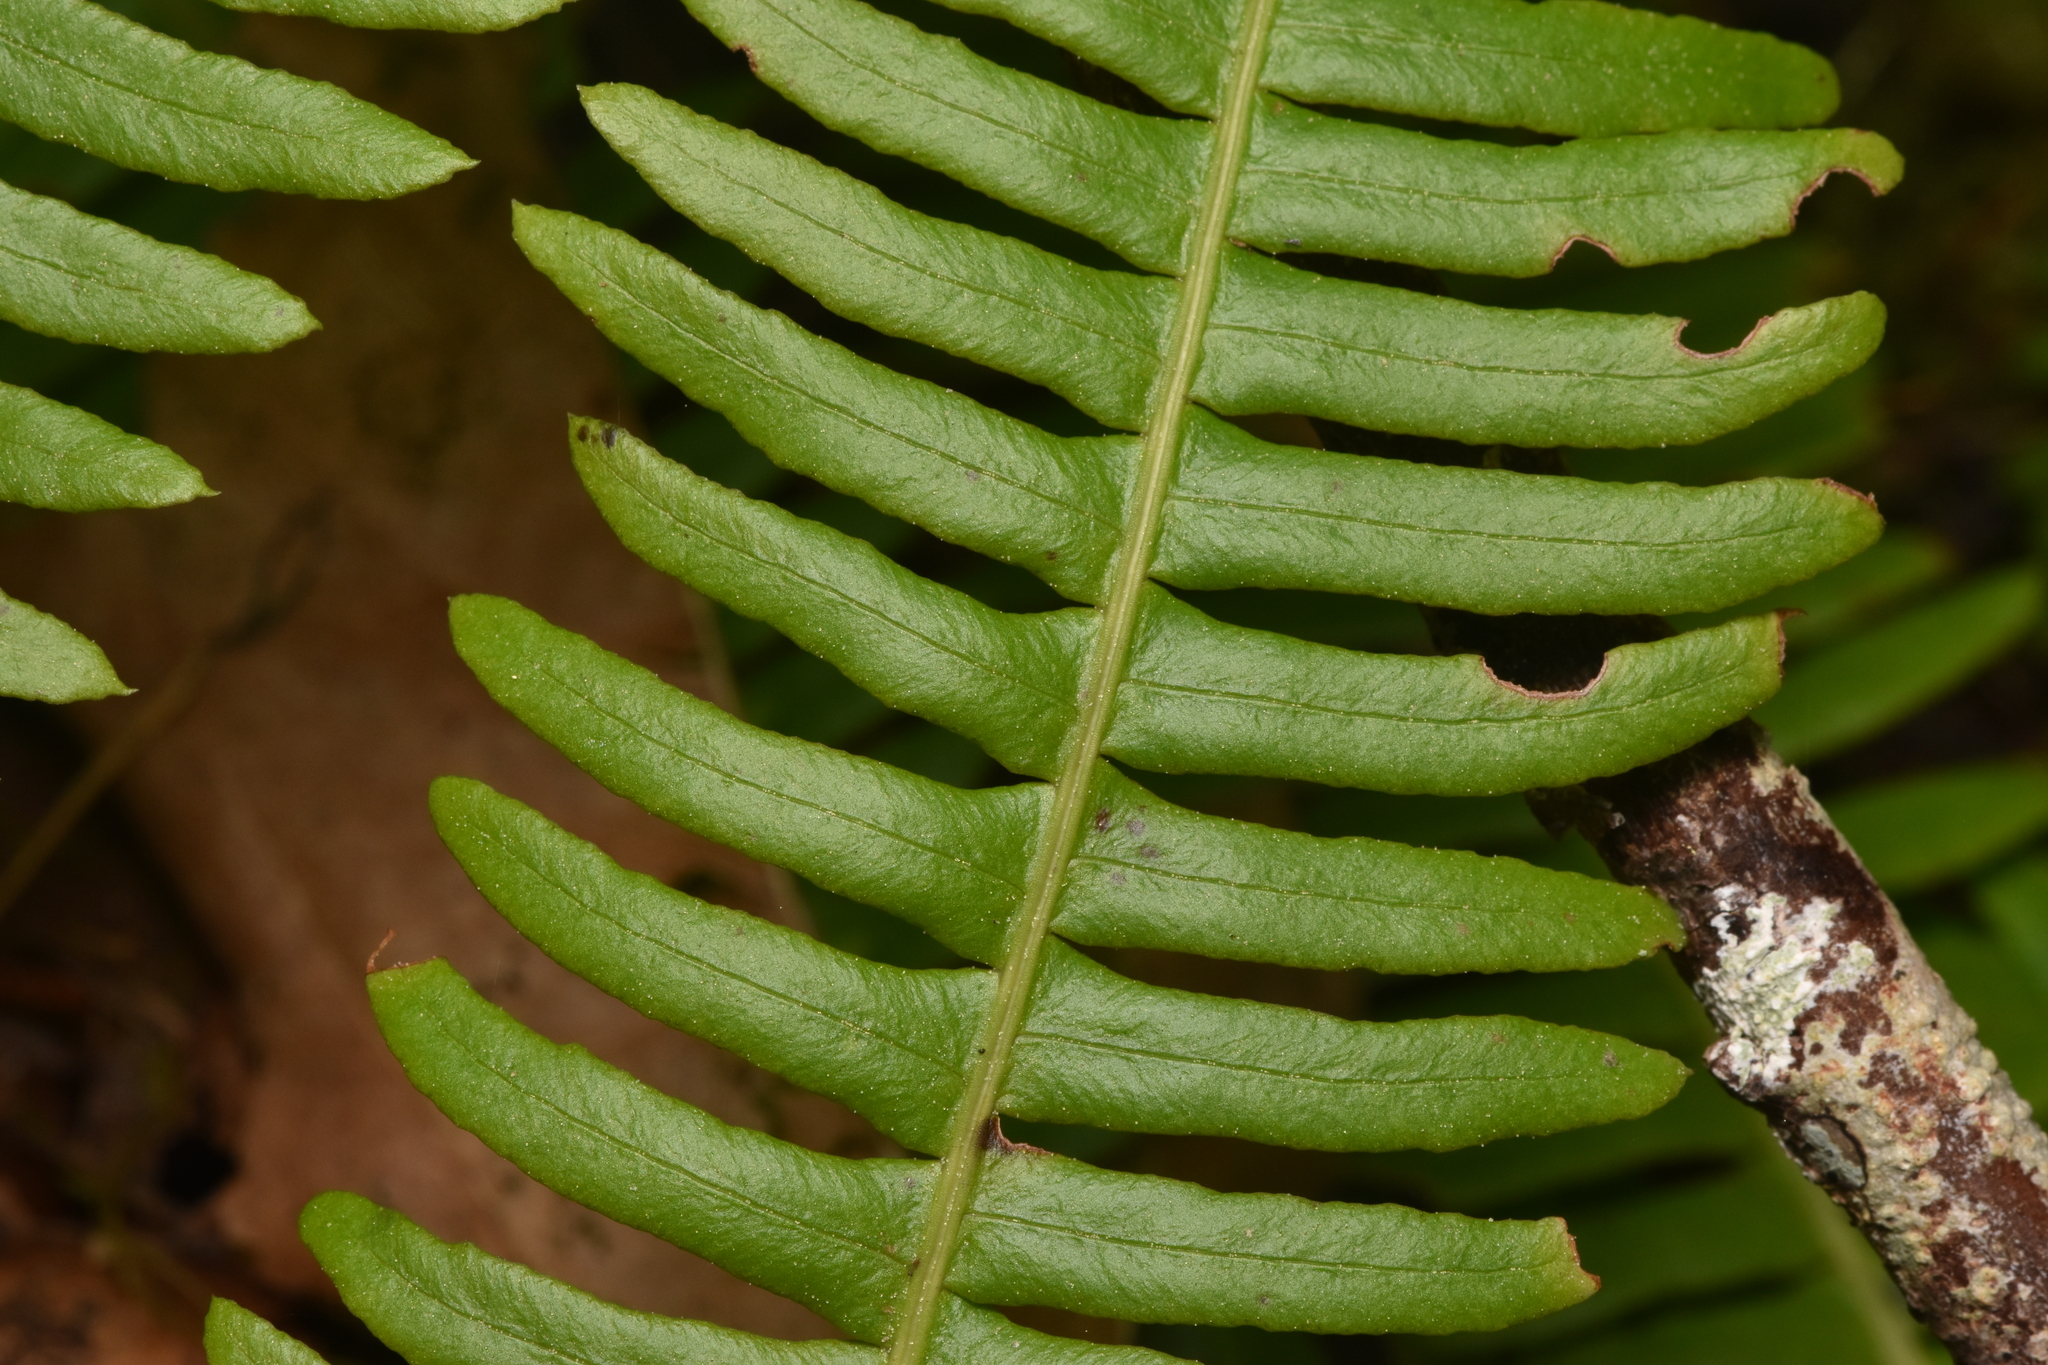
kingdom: Plantae
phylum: Tracheophyta
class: Polypodiopsida
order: Polypodiales
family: Blechnaceae
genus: Struthiopteris
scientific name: Struthiopteris spicant
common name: Deer fern
